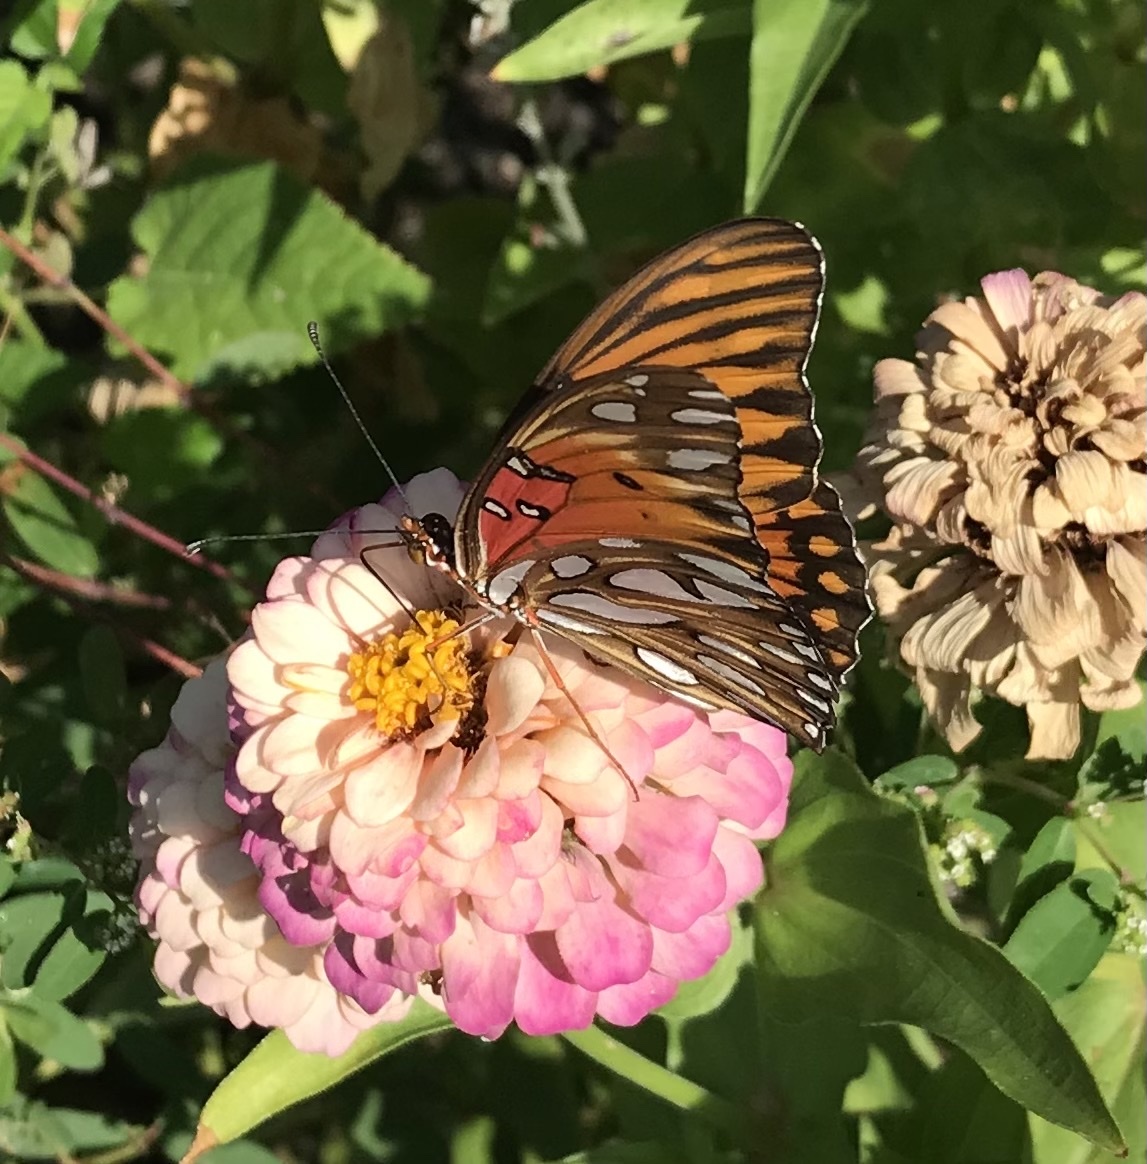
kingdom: Animalia
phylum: Arthropoda
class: Insecta
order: Lepidoptera
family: Nymphalidae
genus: Dione
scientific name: Dione vanillae
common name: Gulf fritillary
